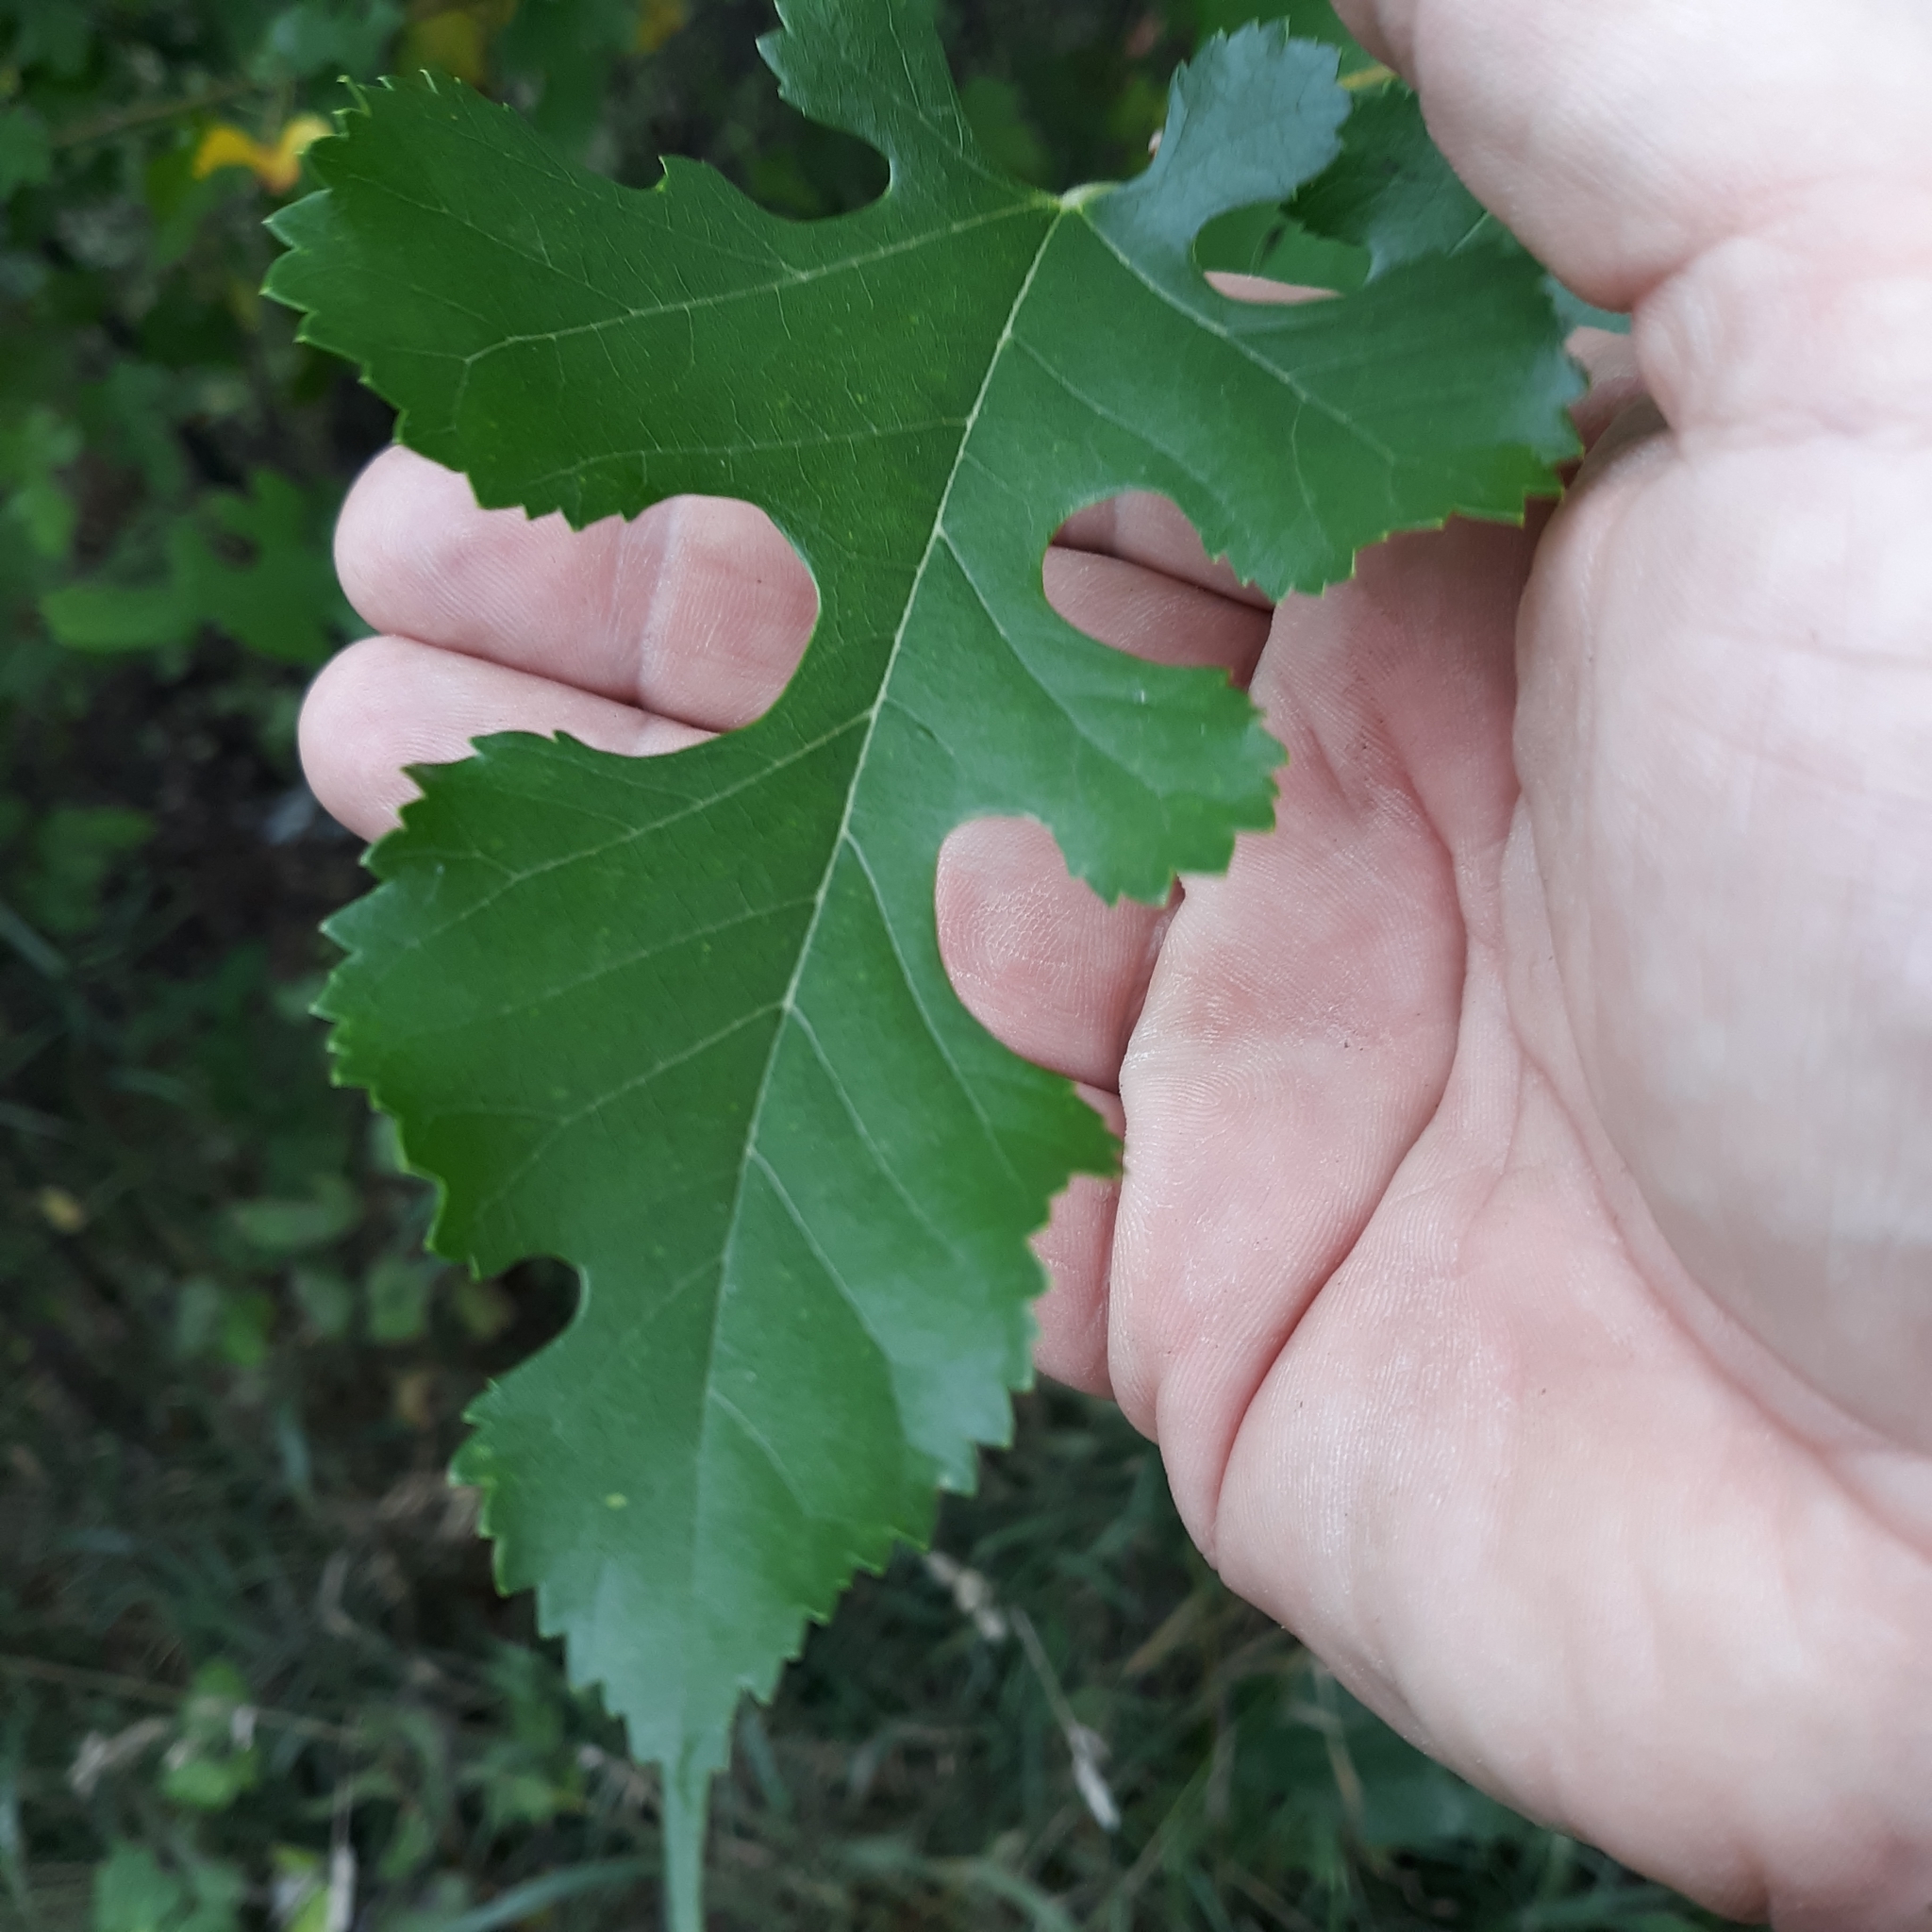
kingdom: Plantae
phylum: Tracheophyta
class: Magnoliopsida
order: Rosales
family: Moraceae
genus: Morus
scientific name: Morus alba
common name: White mulberry
